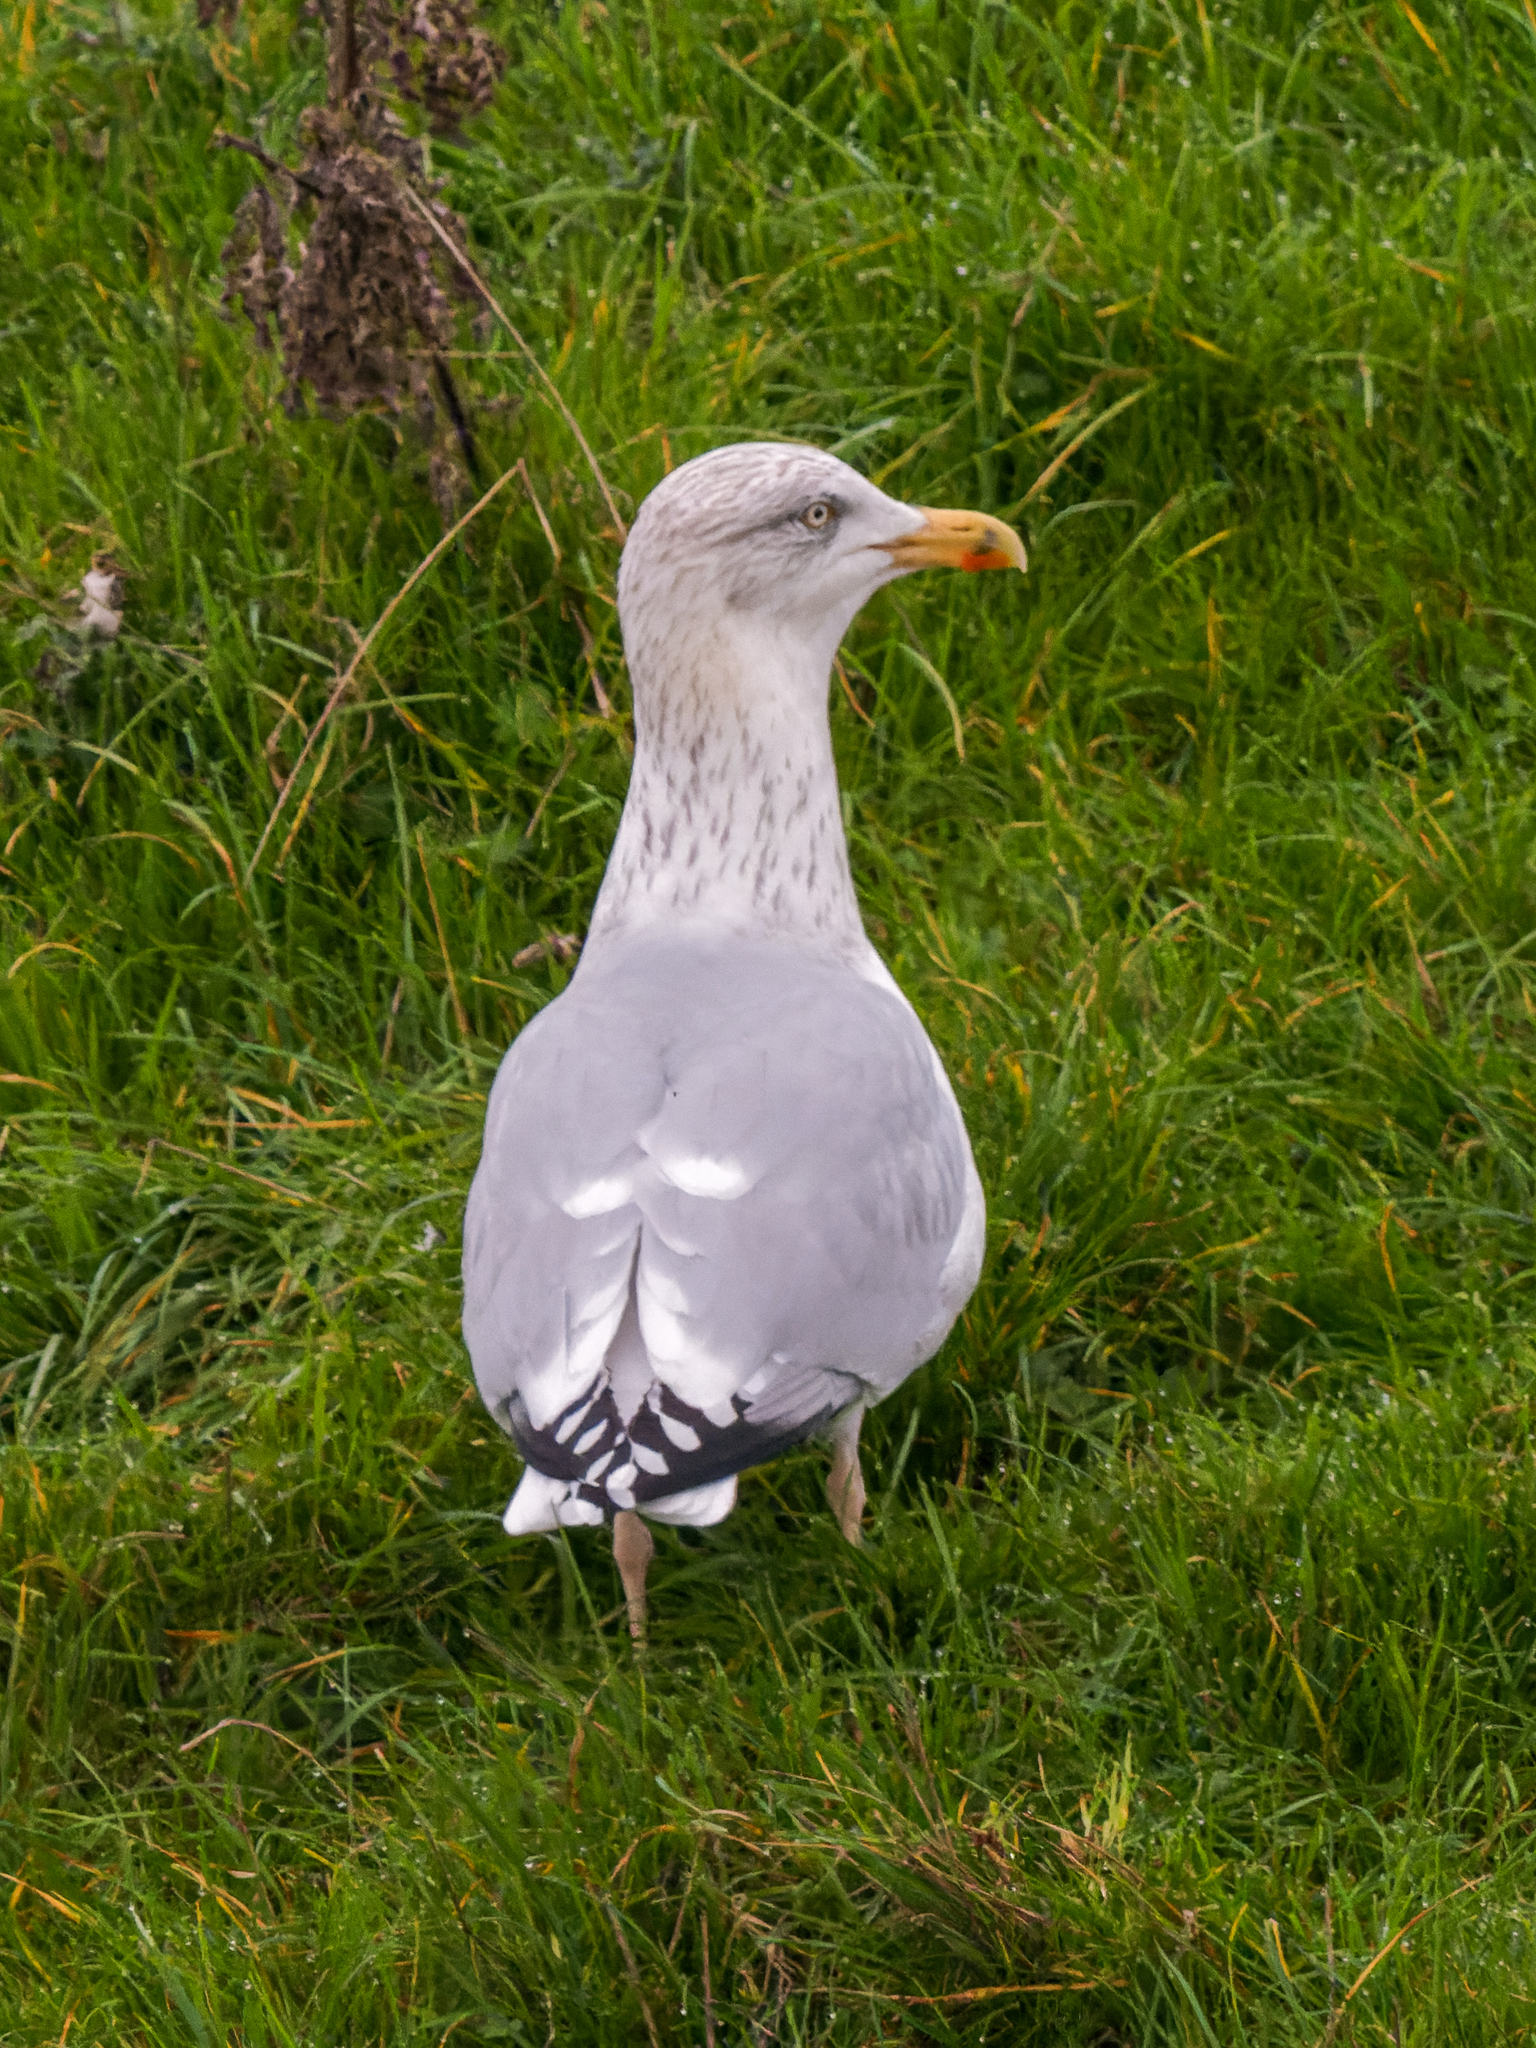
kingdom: Animalia
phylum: Chordata
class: Aves
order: Charadriiformes
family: Laridae
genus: Larus
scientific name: Larus argentatus
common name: Herring gull
